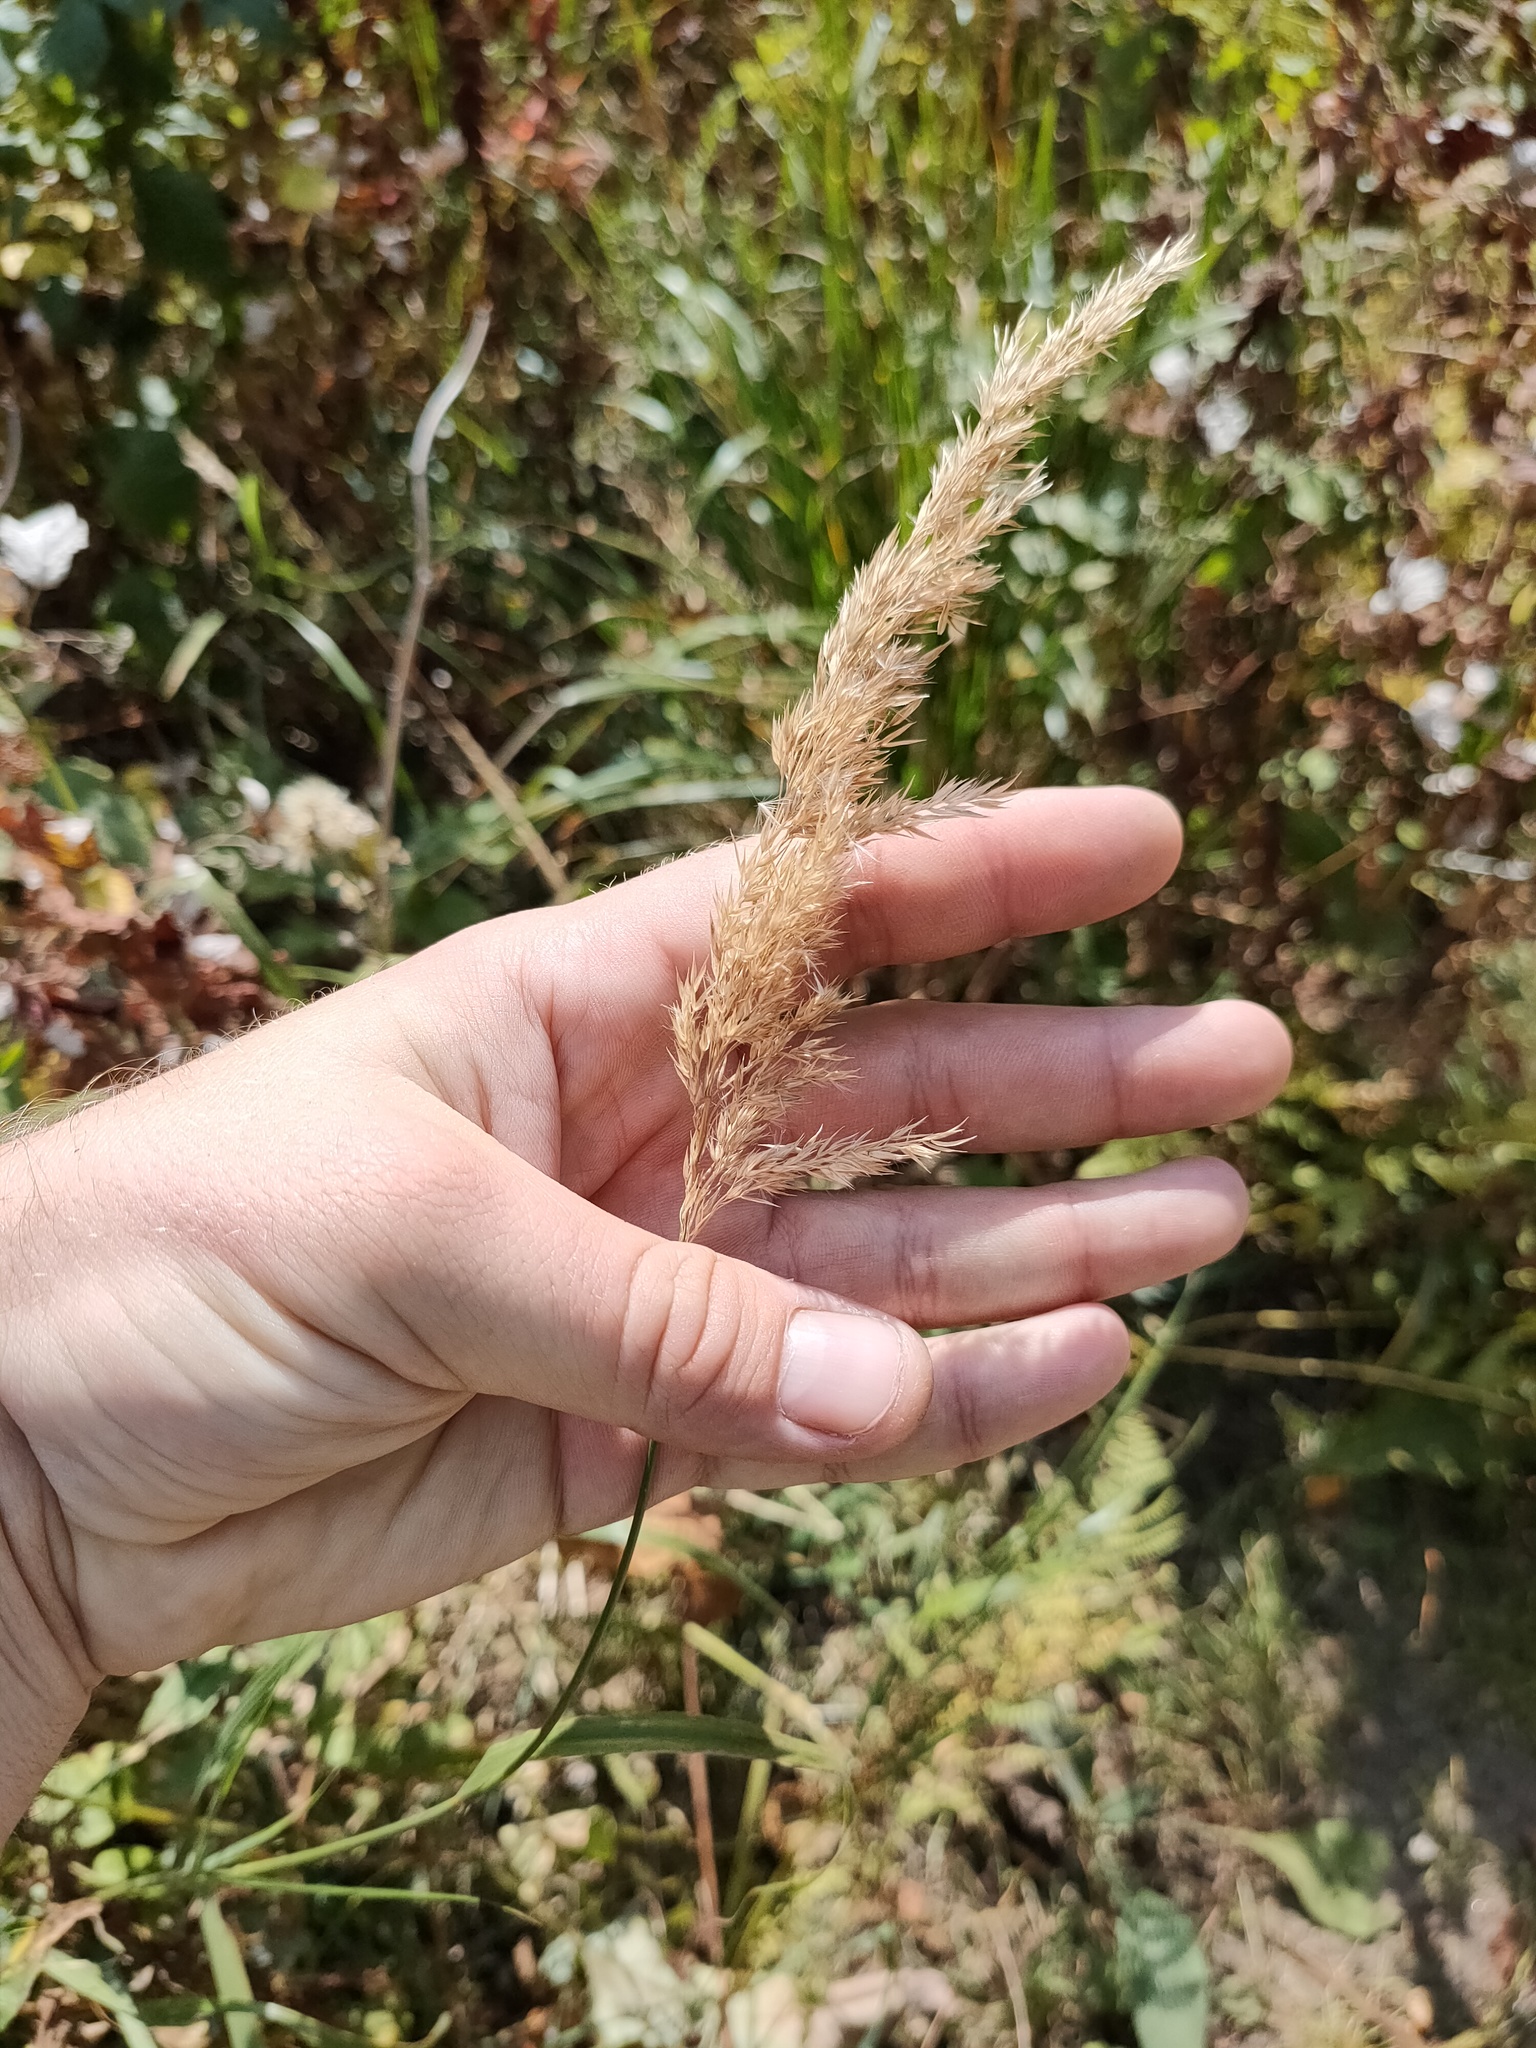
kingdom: Plantae
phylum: Tracheophyta
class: Liliopsida
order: Poales
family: Poaceae
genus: Calamagrostis
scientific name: Calamagrostis epigejos
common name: Wood small-reed
